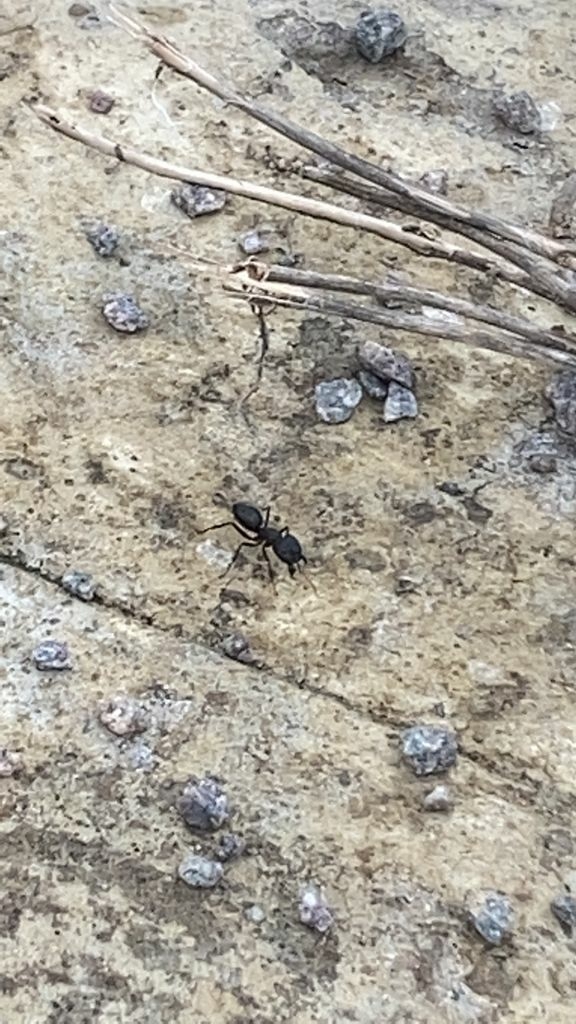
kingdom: Animalia
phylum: Arthropoda
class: Insecta
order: Hymenoptera
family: Formicidae
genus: Camponotus
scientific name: Camponotus compressus
